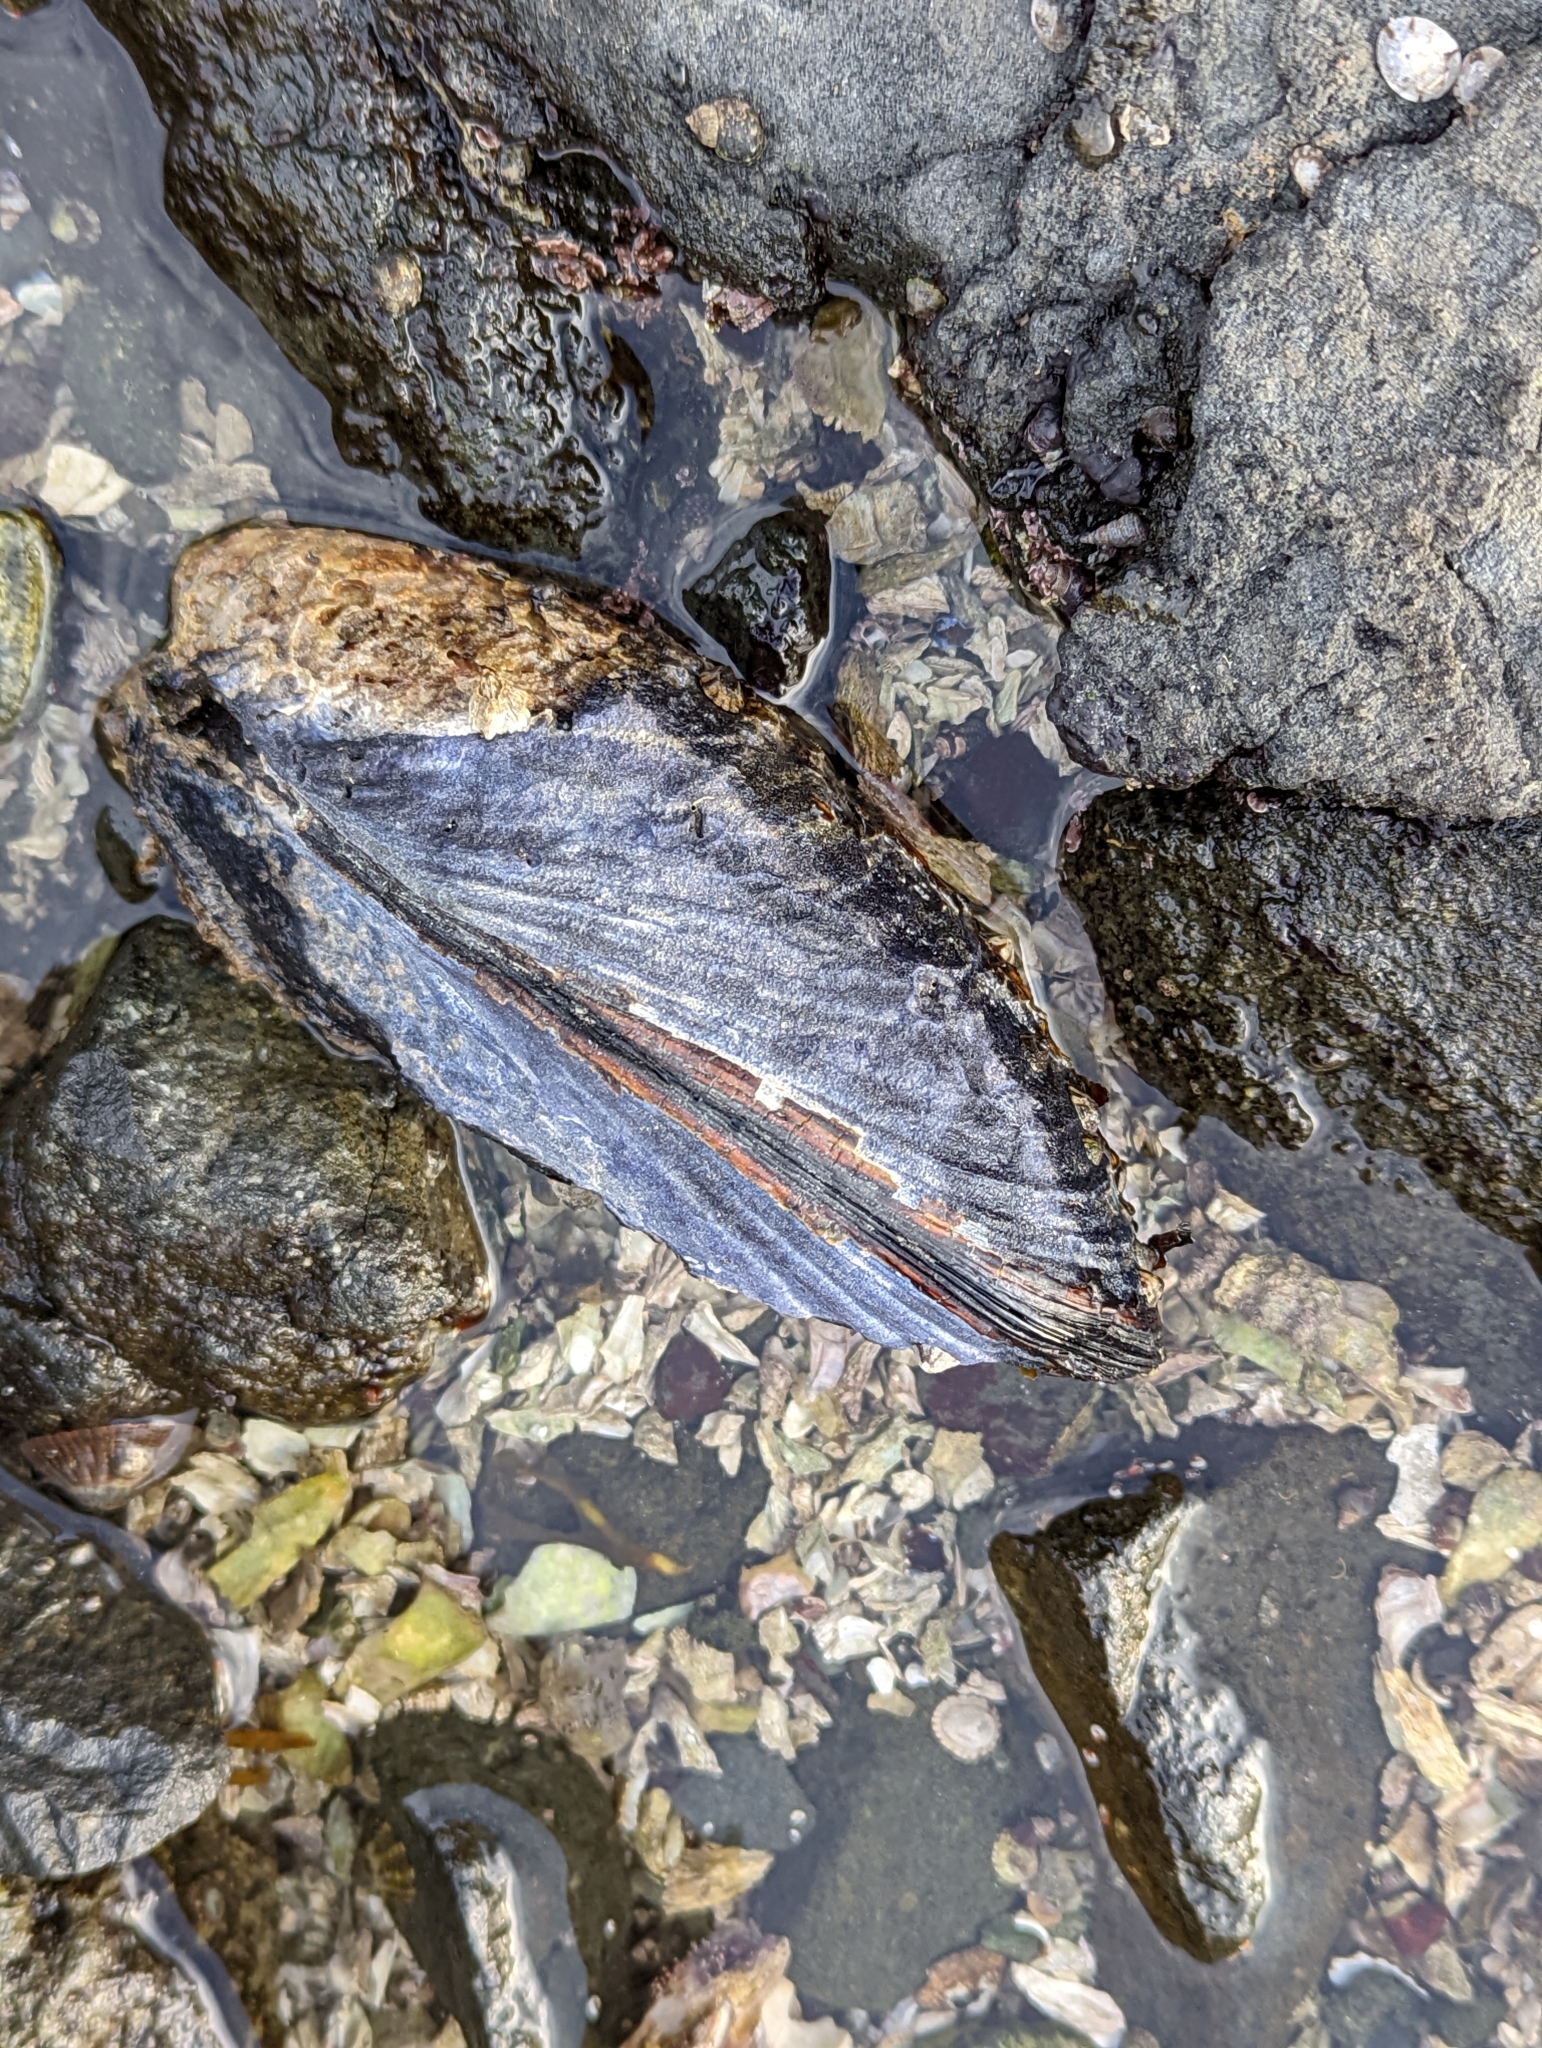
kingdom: Animalia
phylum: Mollusca
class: Bivalvia
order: Mytilida
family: Mytilidae
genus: Mytilus
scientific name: Mytilus californianus
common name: California mussel
